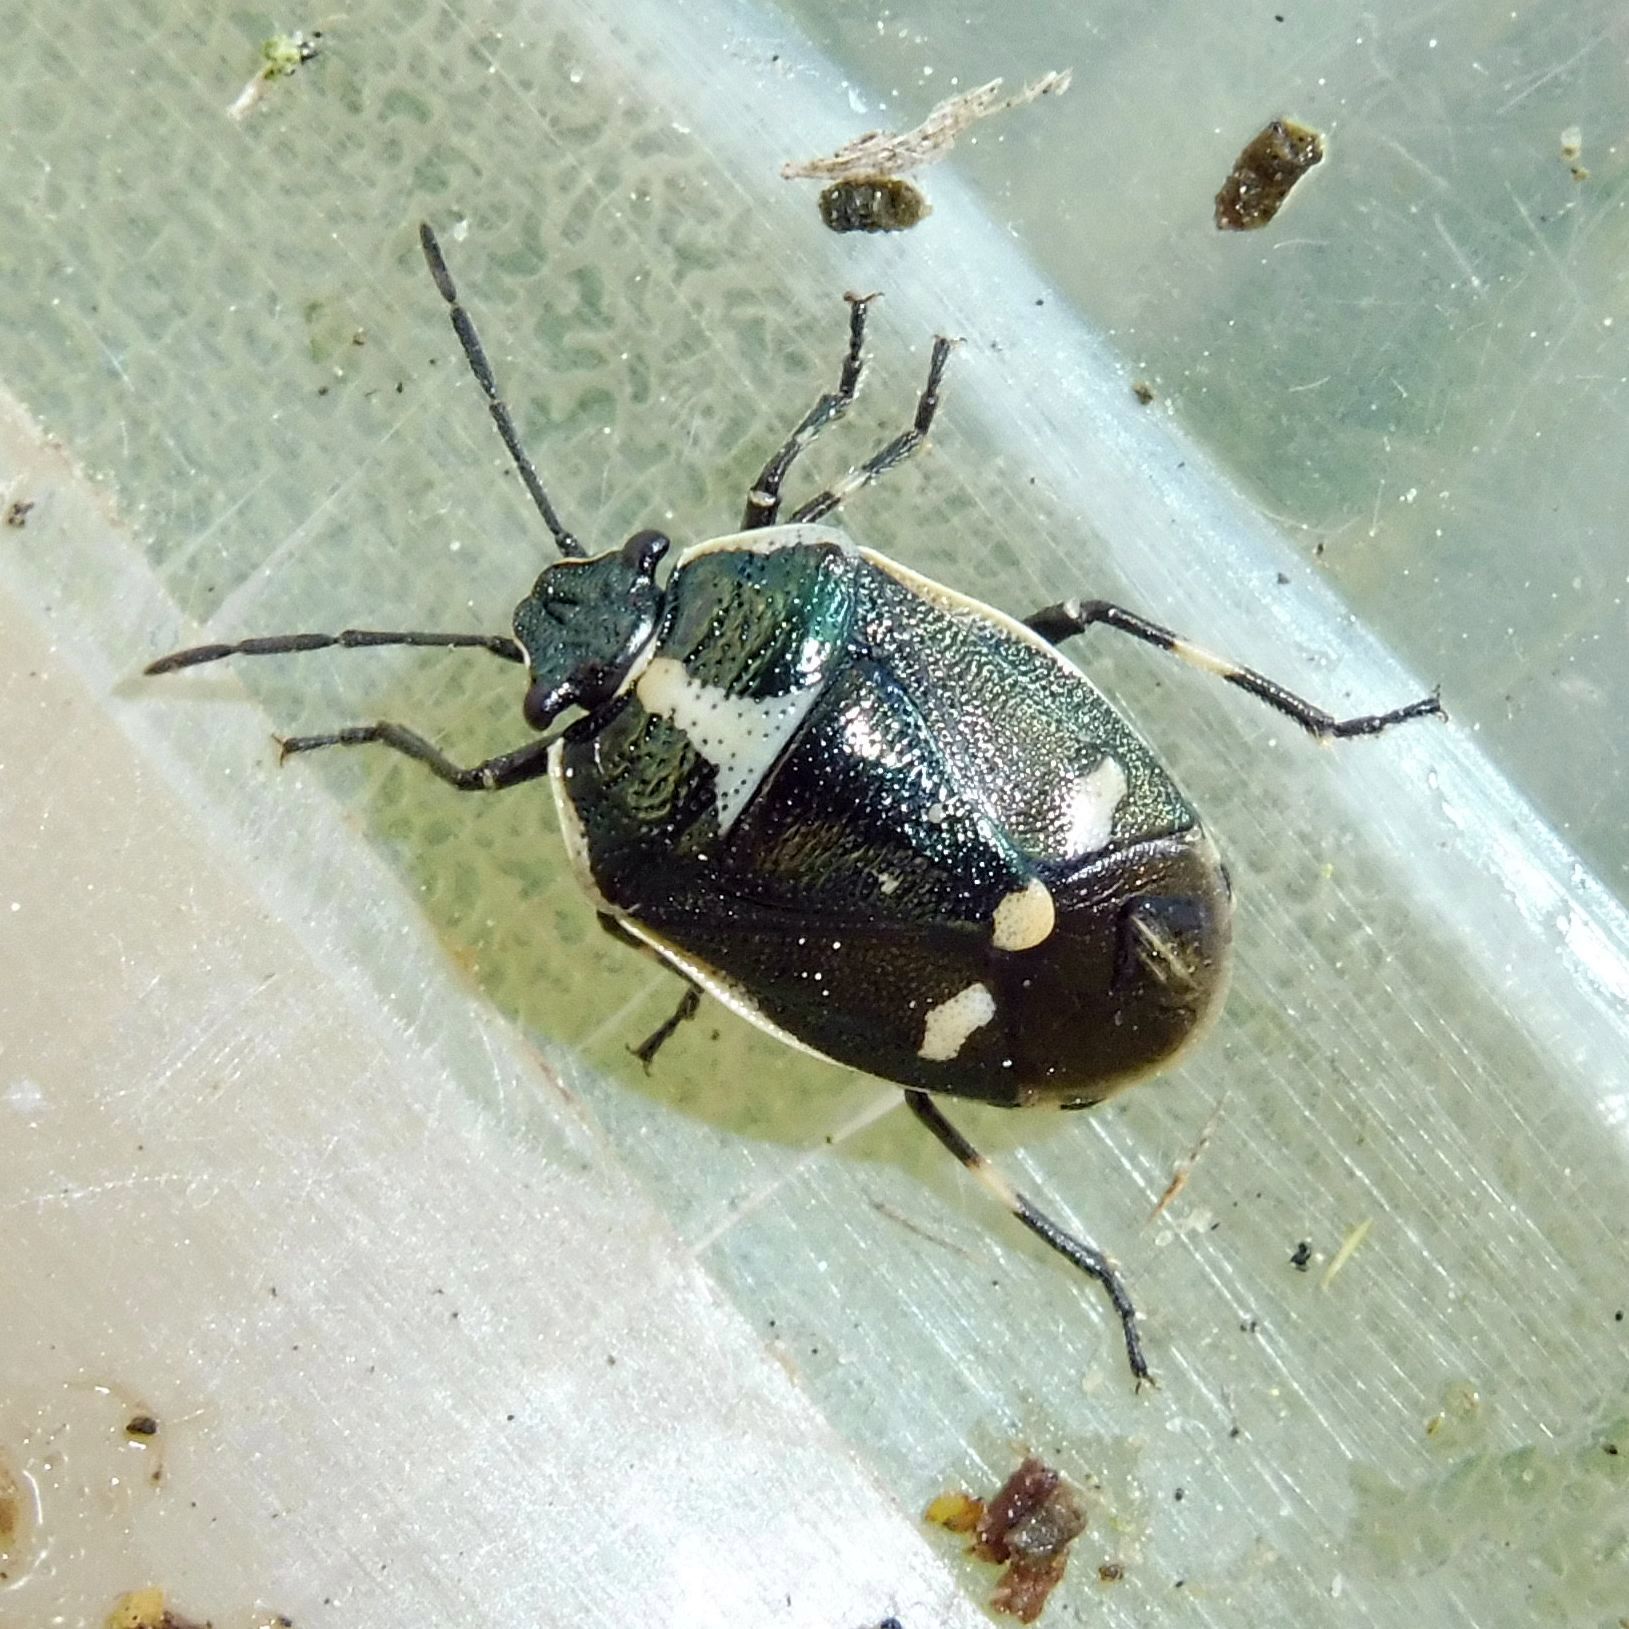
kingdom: Animalia
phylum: Arthropoda
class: Insecta
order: Hemiptera
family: Pentatomidae
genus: Eurydema
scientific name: Eurydema oleracea
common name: Cabbage bug
